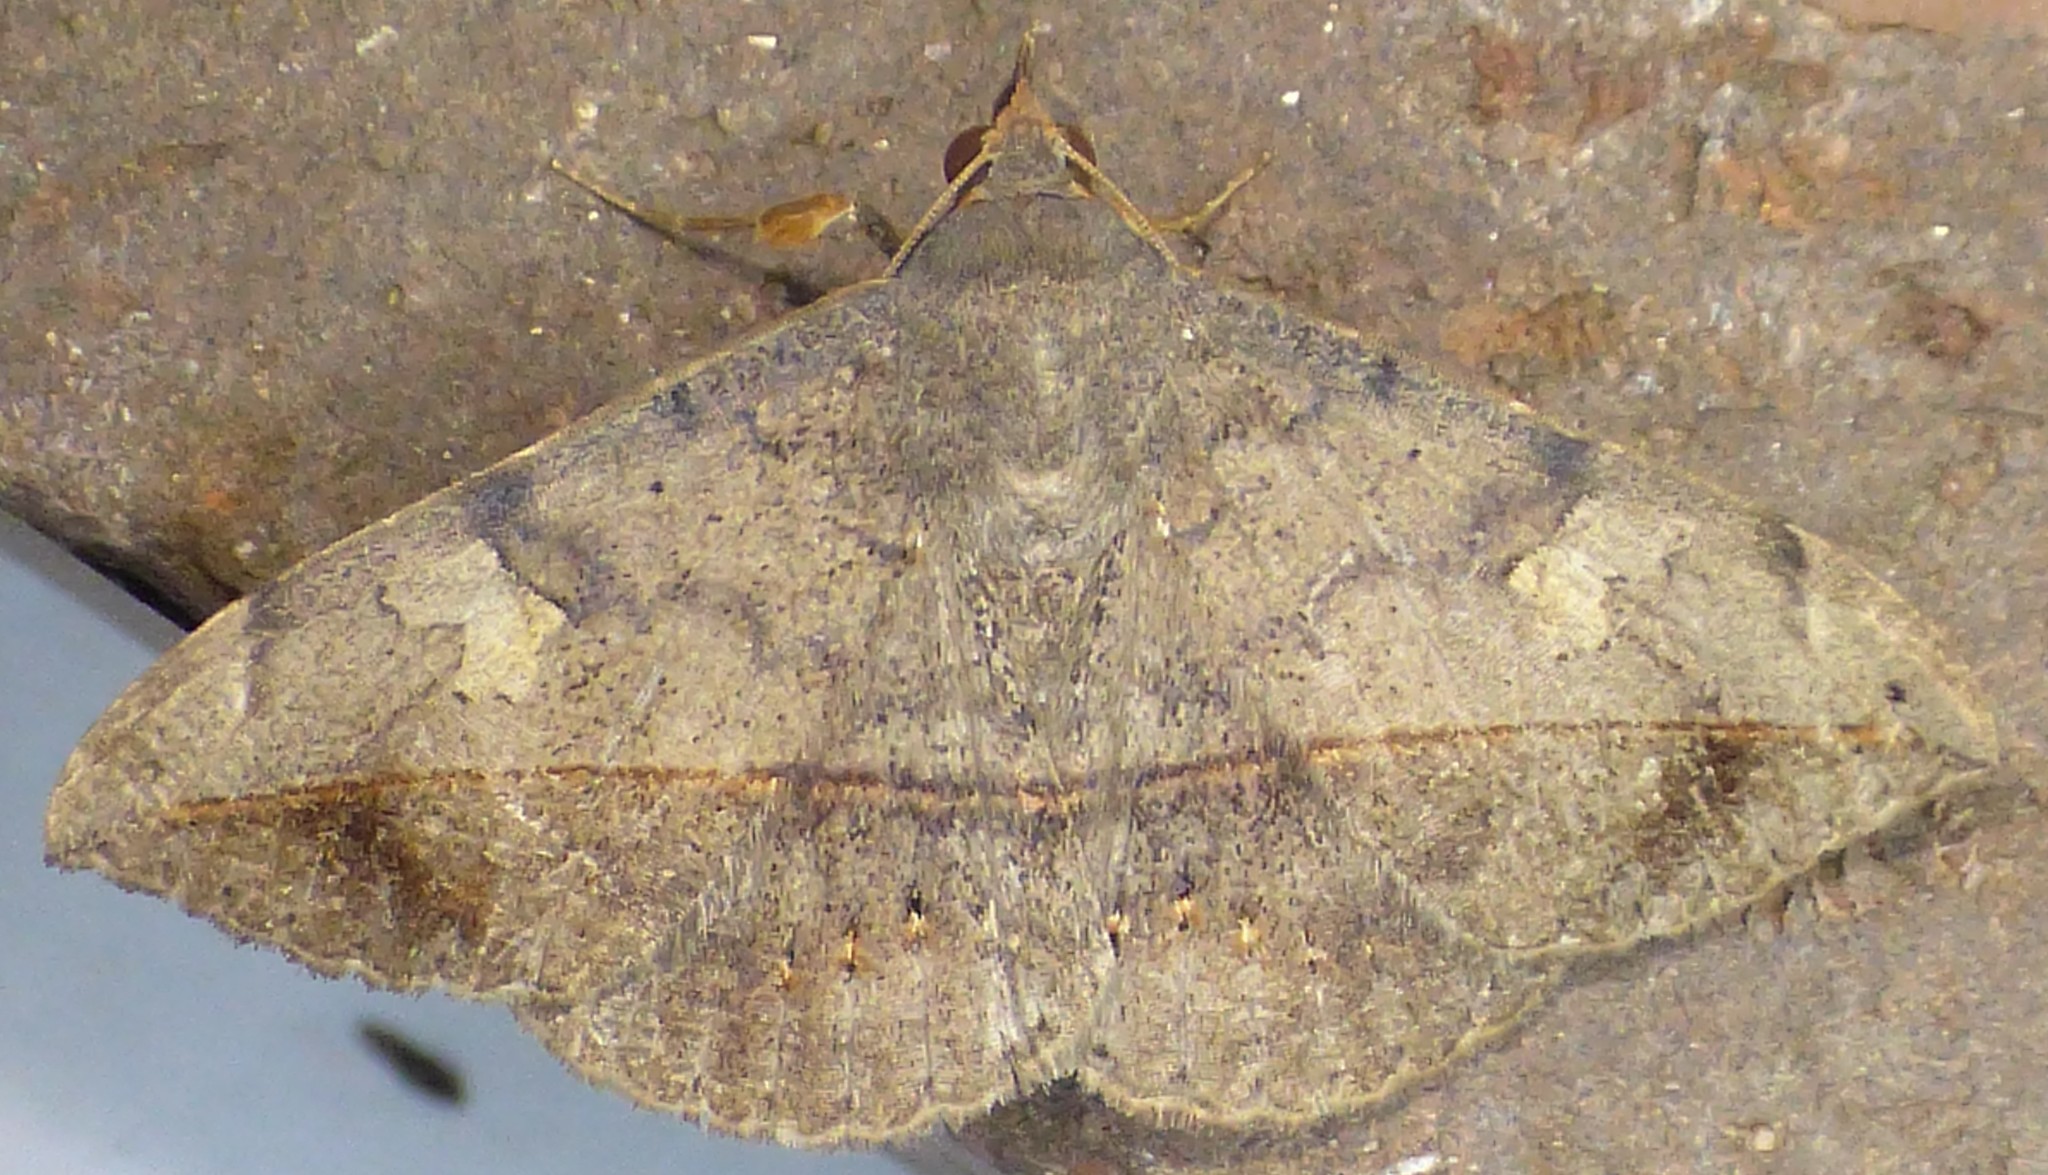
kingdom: Animalia
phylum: Arthropoda
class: Insecta
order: Lepidoptera
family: Erebidae
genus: Anticarsia
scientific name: Anticarsia gemmatalis
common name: Cutworm moth
